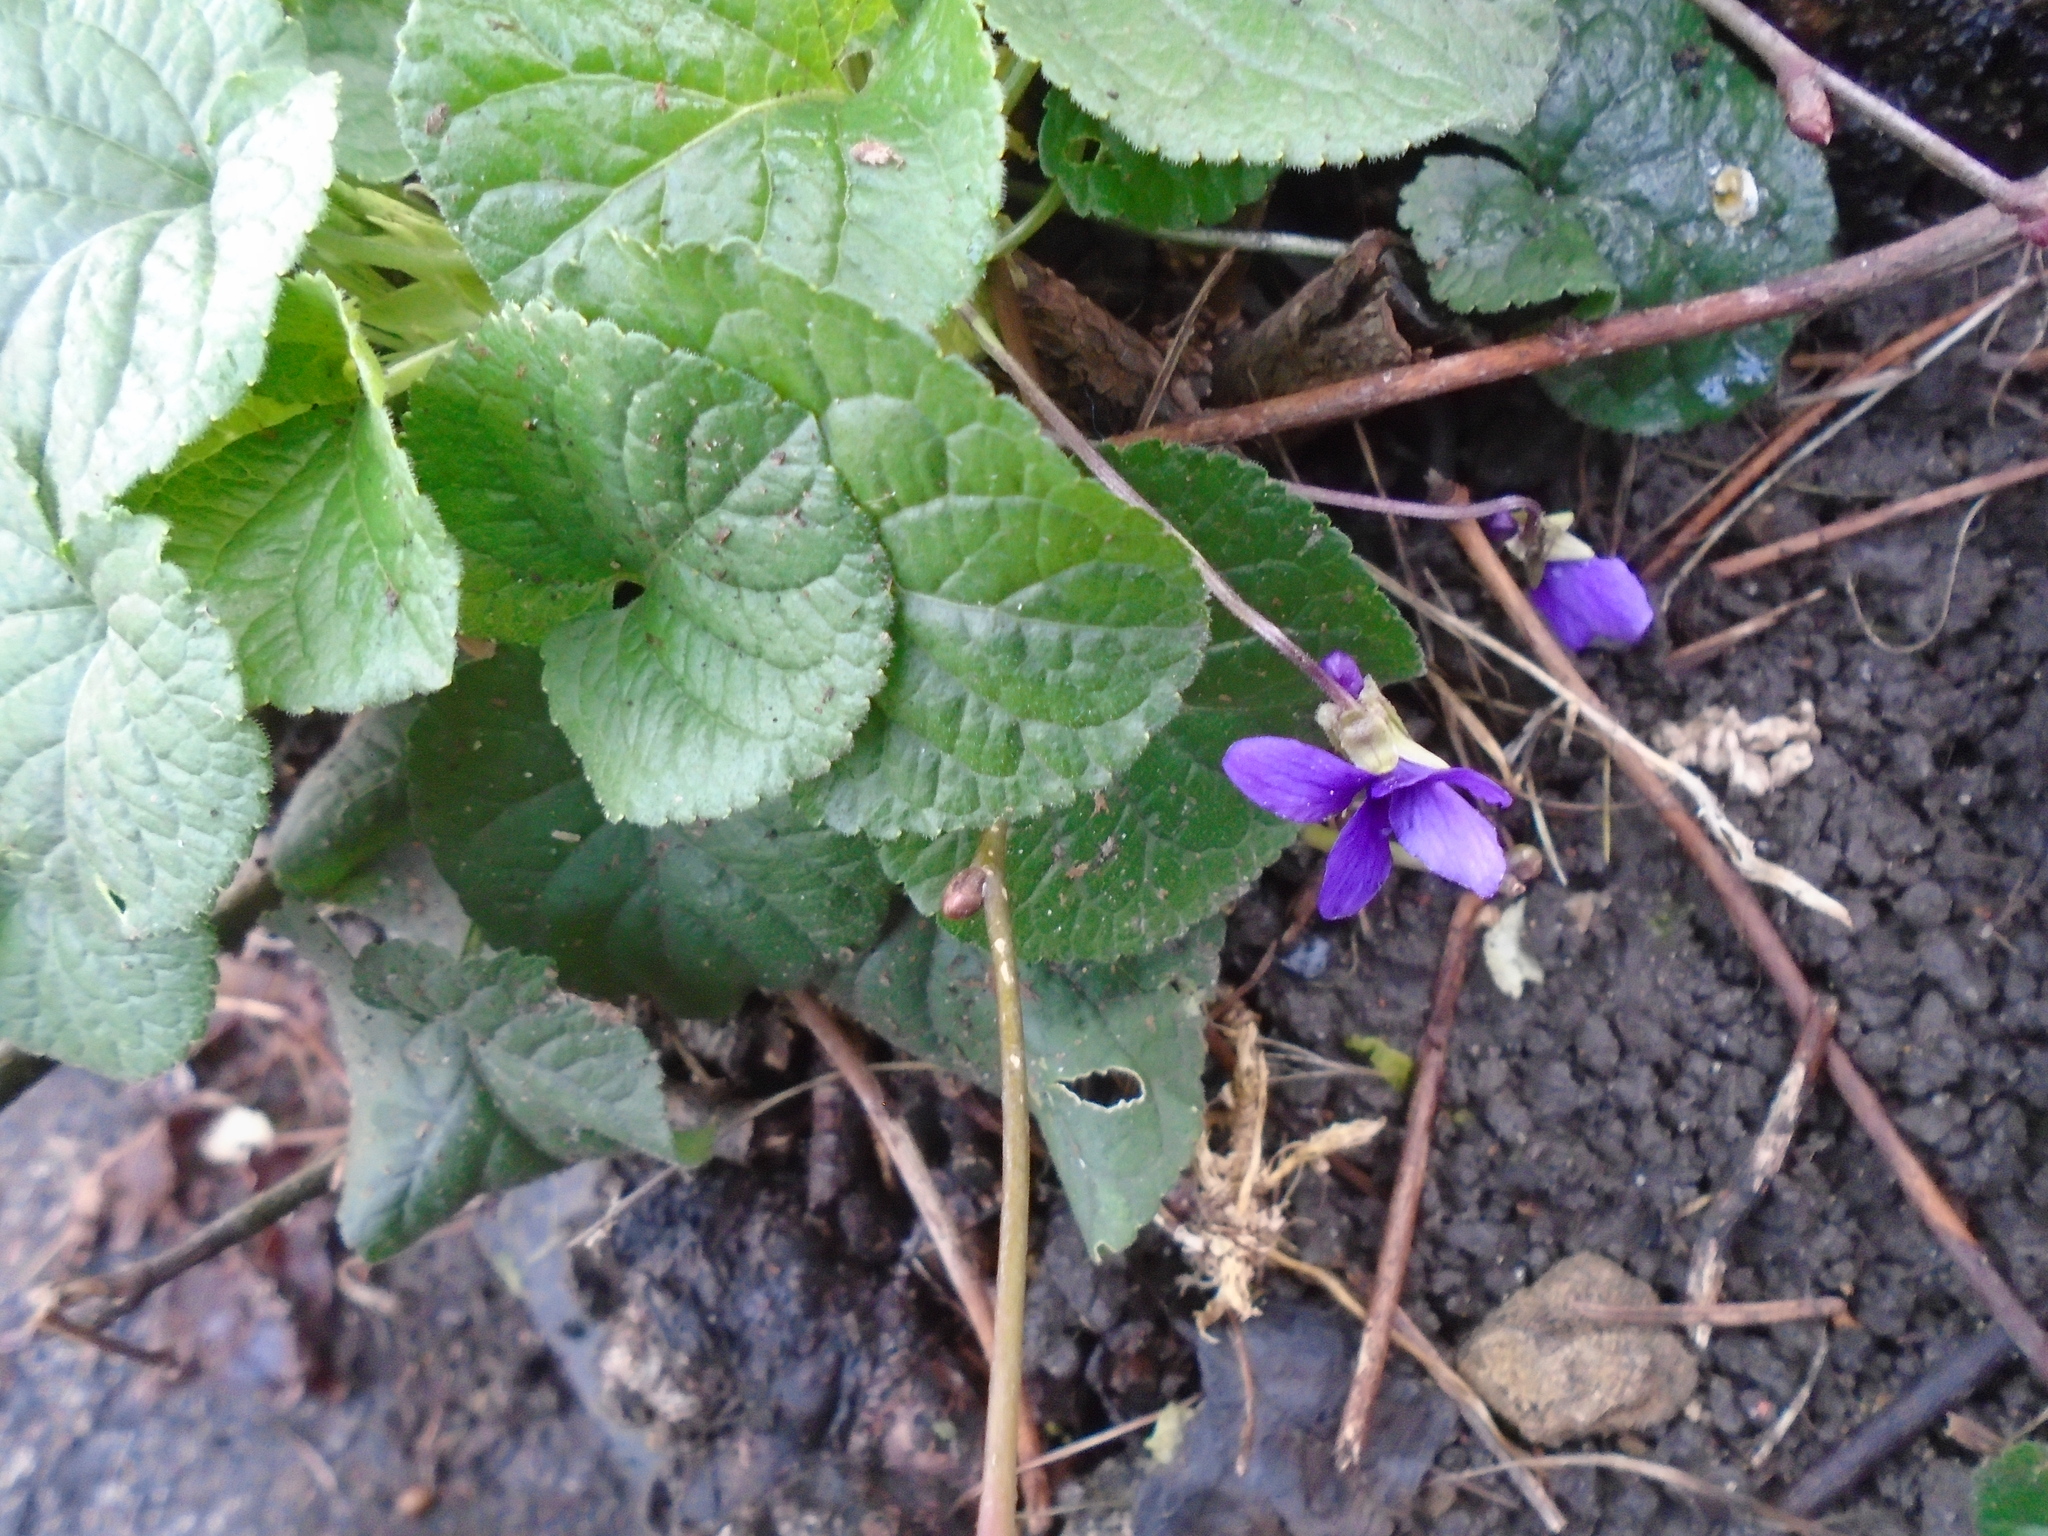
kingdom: Plantae
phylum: Tracheophyta
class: Magnoliopsida
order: Malpighiales
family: Violaceae
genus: Viola
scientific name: Viola odorata
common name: Sweet violet
